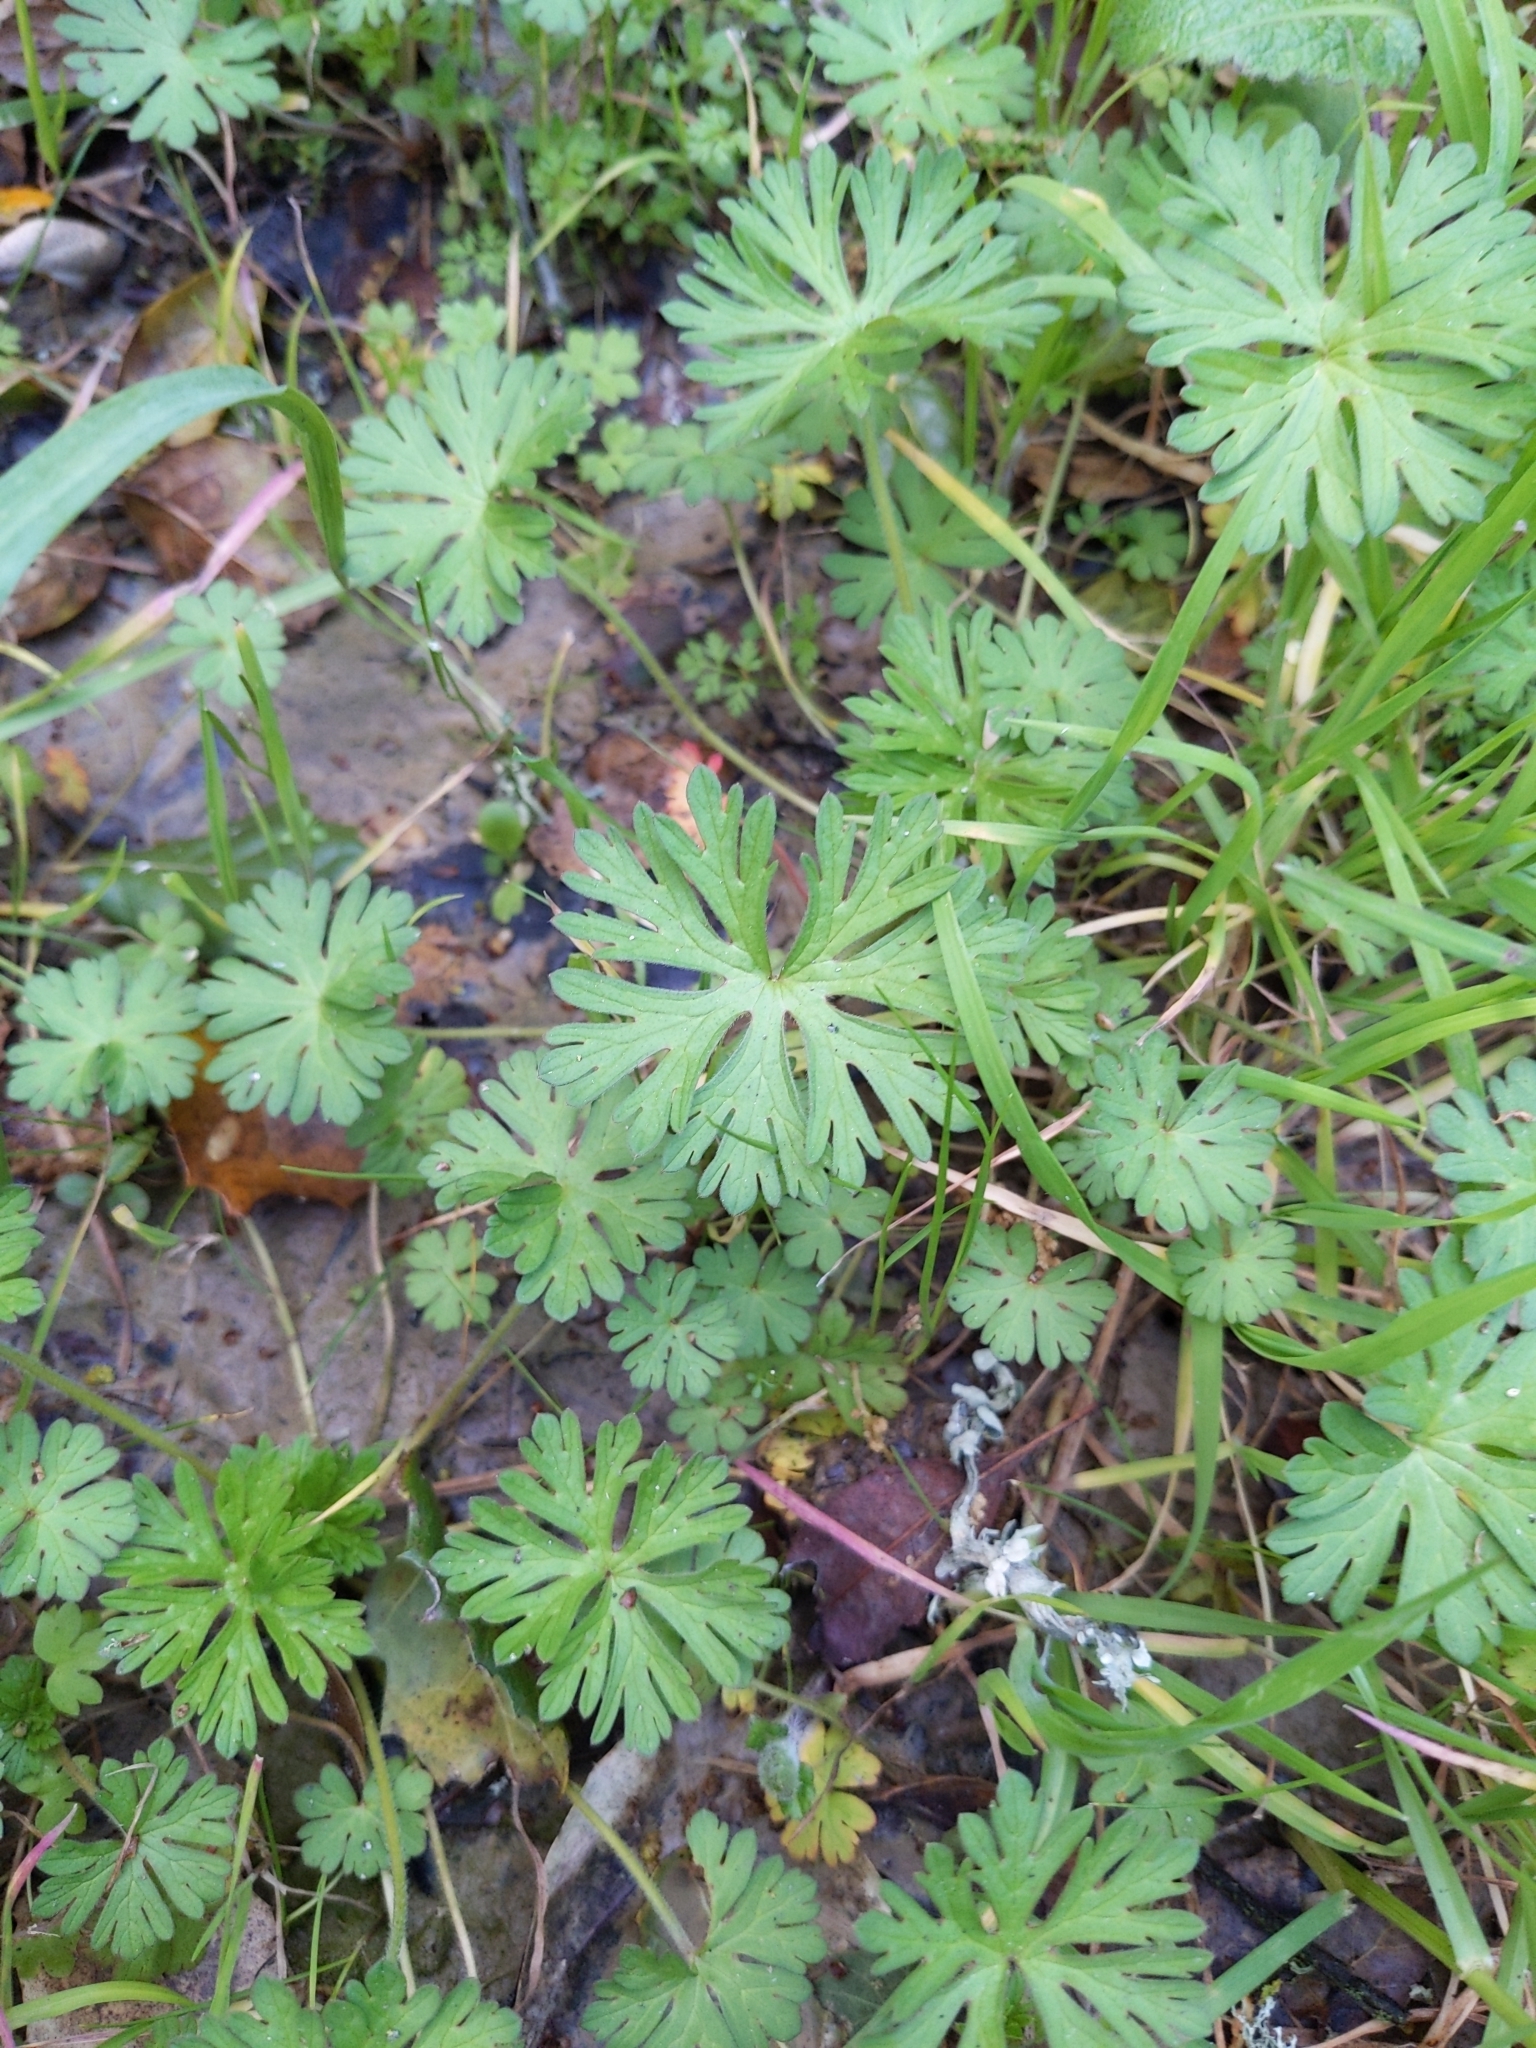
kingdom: Plantae
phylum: Tracheophyta
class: Magnoliopsida
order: Geraniales
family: Geraniaceae
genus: Geranium
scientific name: Geranium
